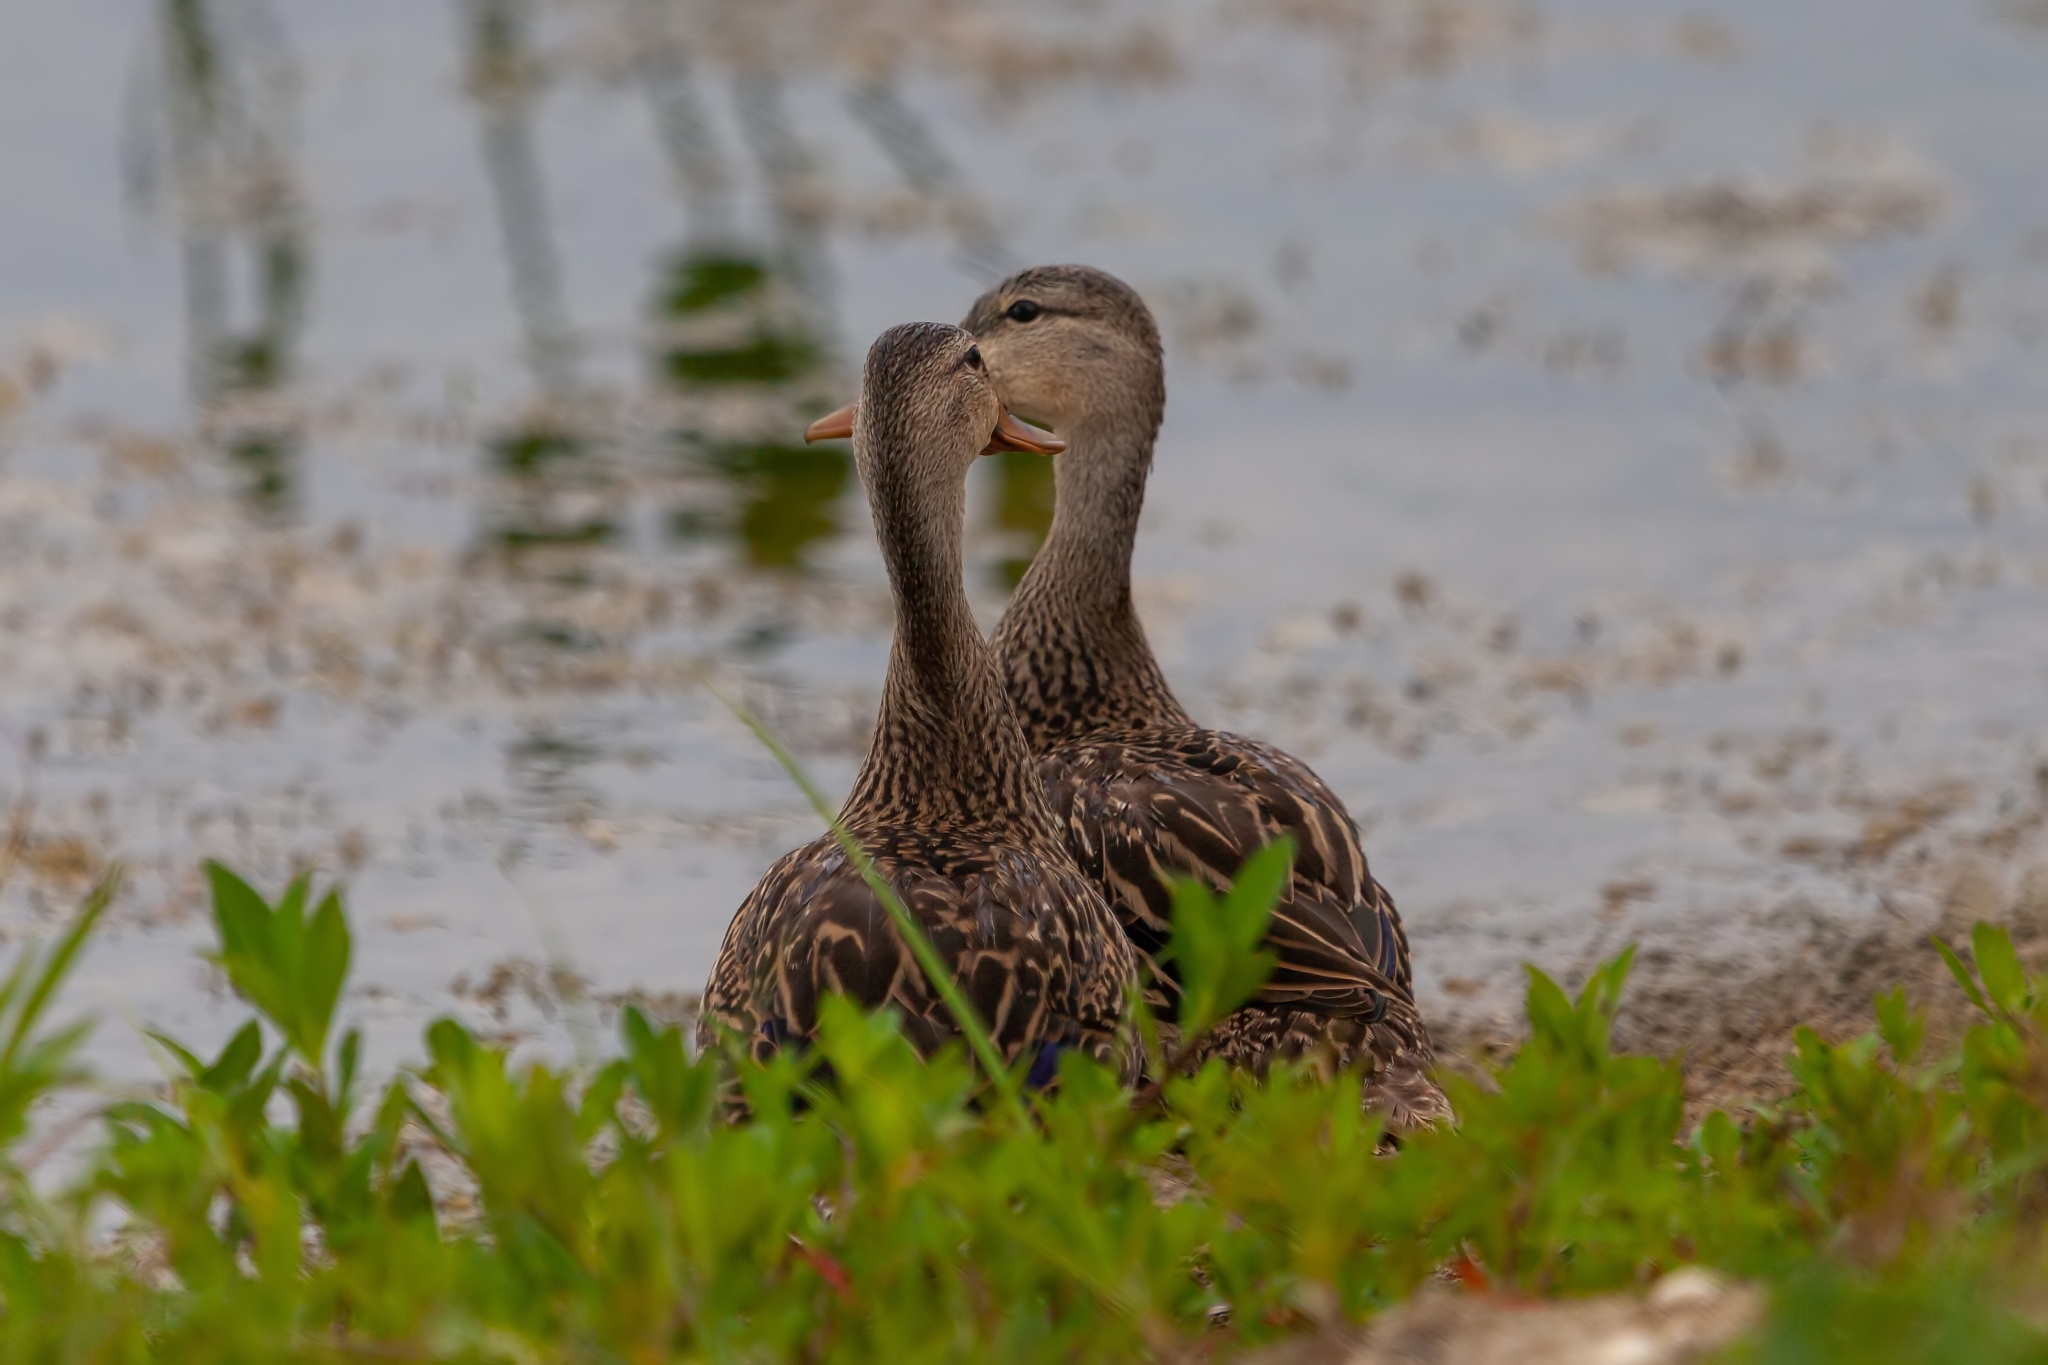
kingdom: Animalia
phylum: Chordata
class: Aves
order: Anseriformes
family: Anatidae
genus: Anas
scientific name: Anas fulvigula
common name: Mottled duck
